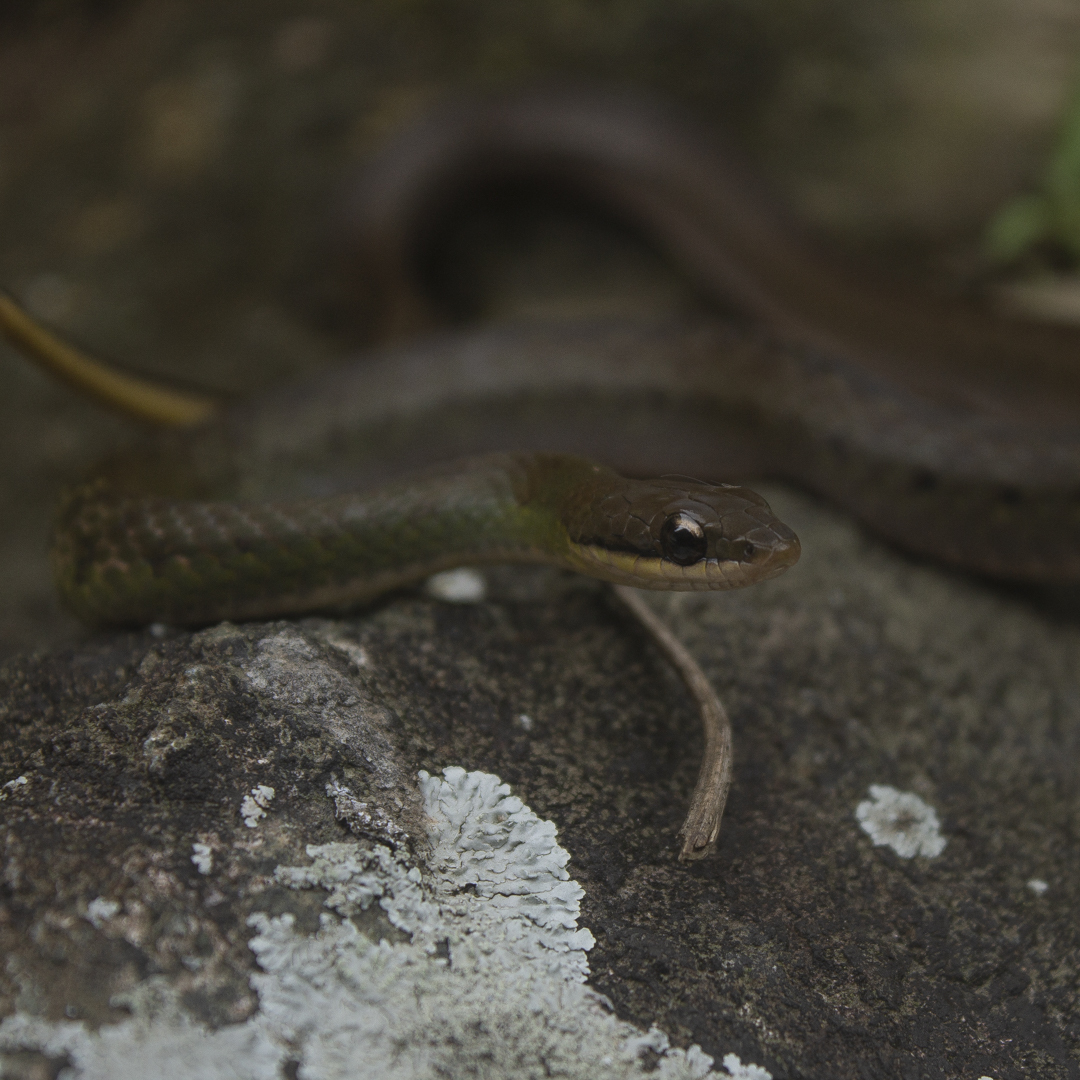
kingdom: Animalia
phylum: Chordata
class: Squamata
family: Colubridae
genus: Erythrolamprus
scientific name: Erythrolamprus epinephalus
